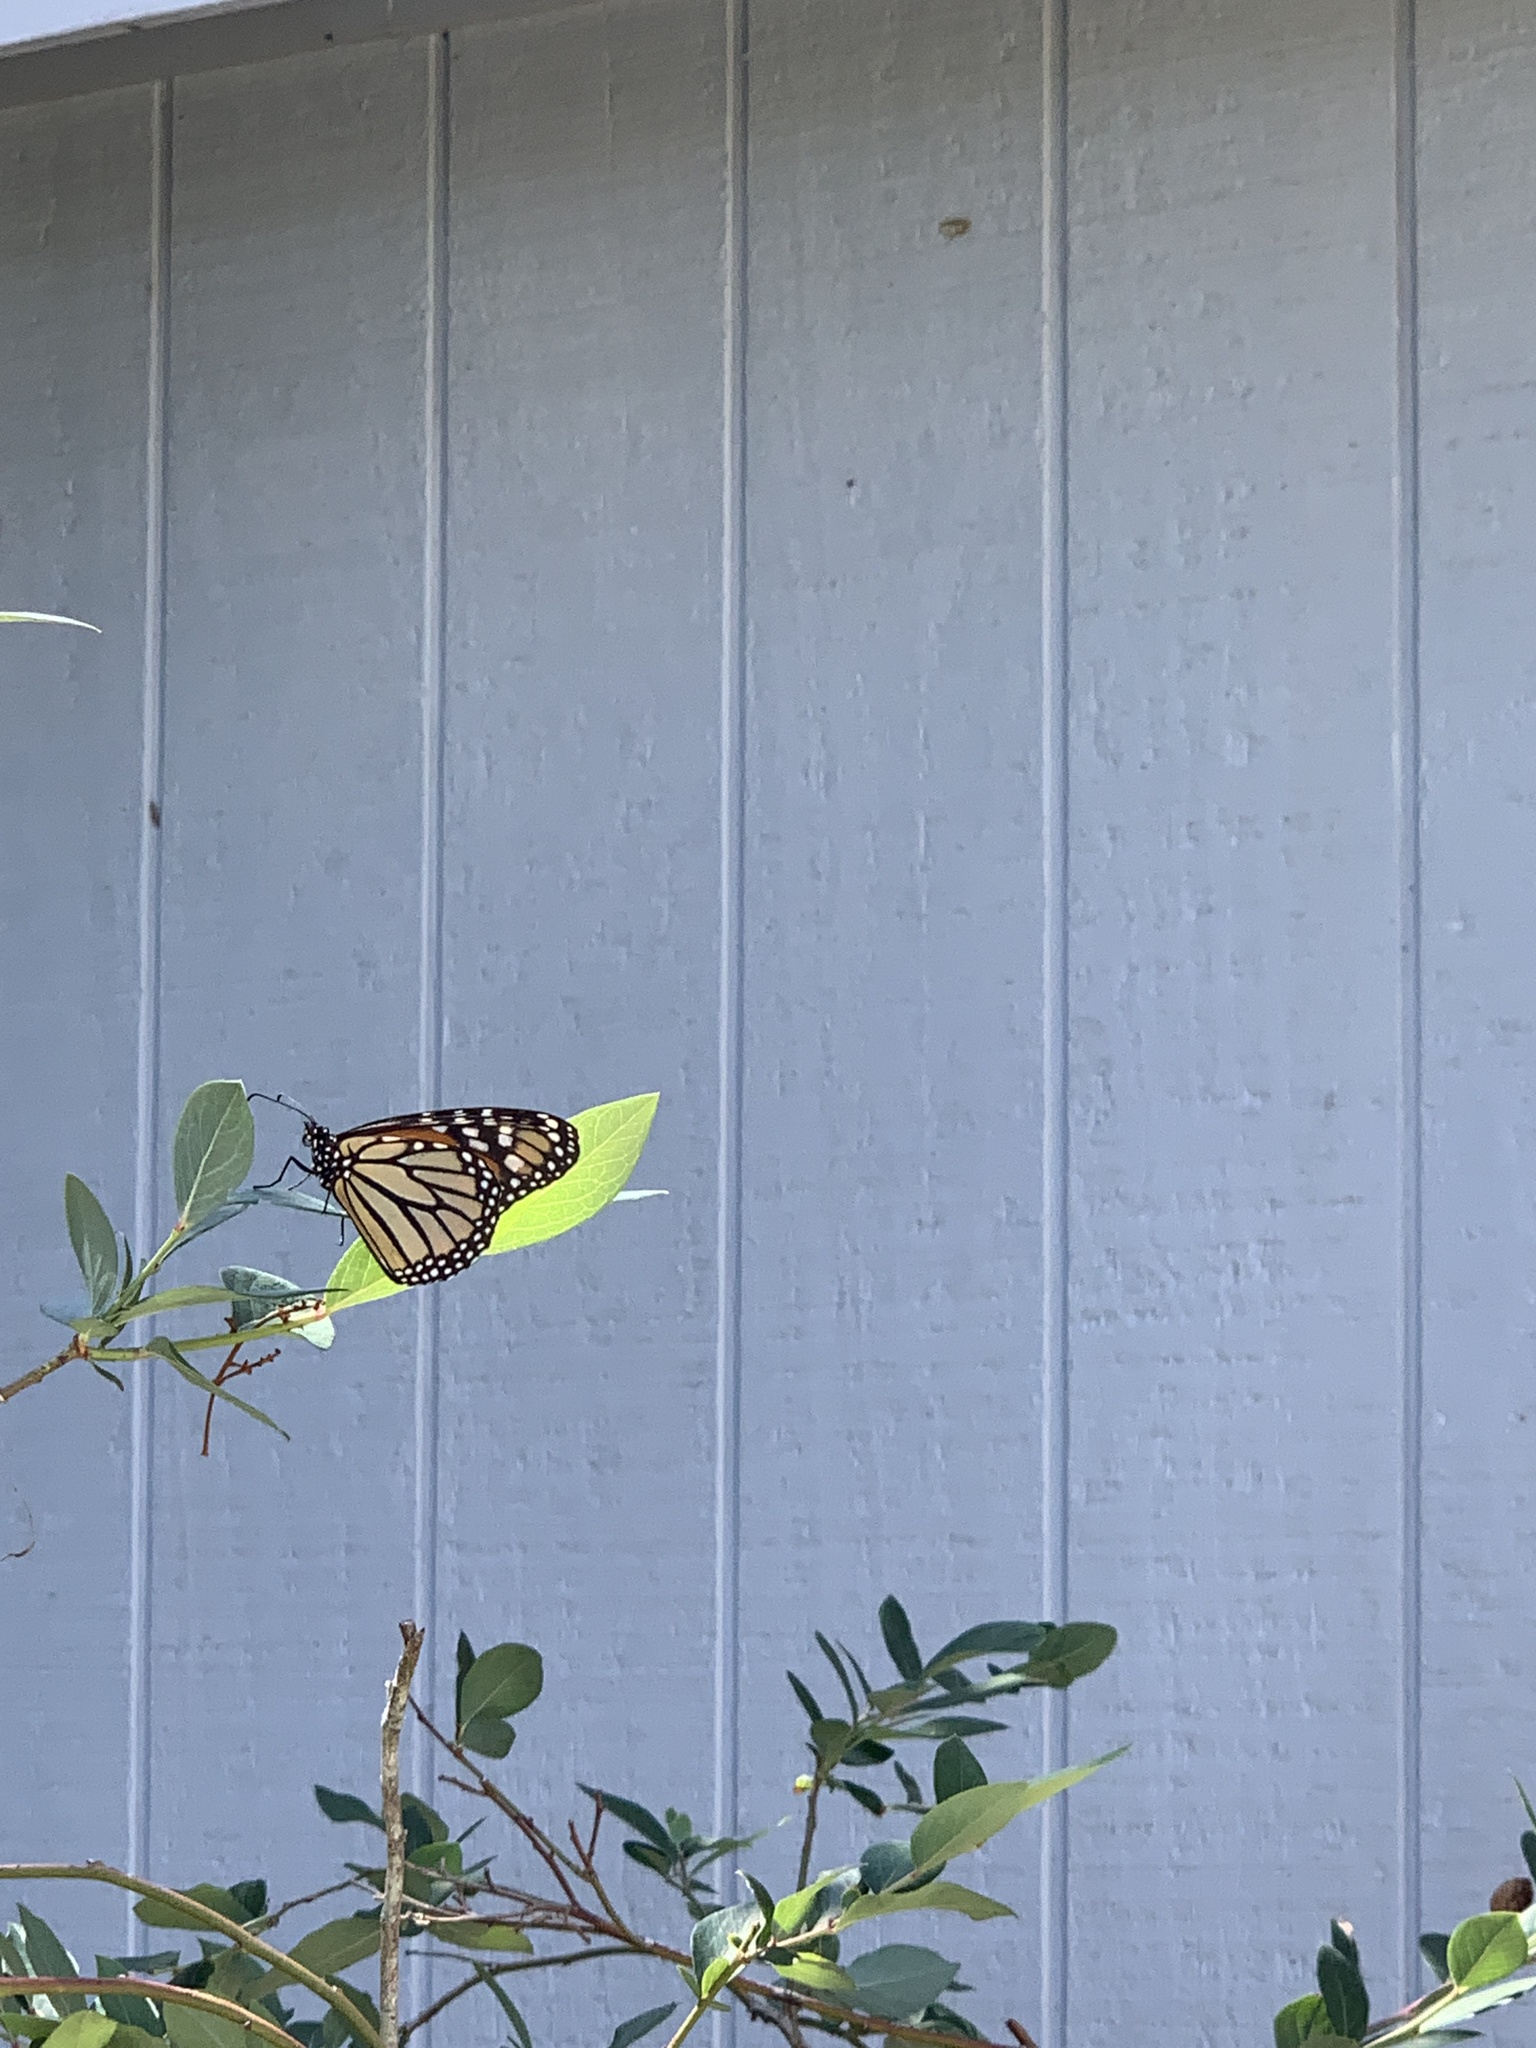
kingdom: Animalia
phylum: Arthropoda
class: Insecta
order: Lepidoptera
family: Nymphalidae
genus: Danaus
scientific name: Danaus plexippus
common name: Monarch
